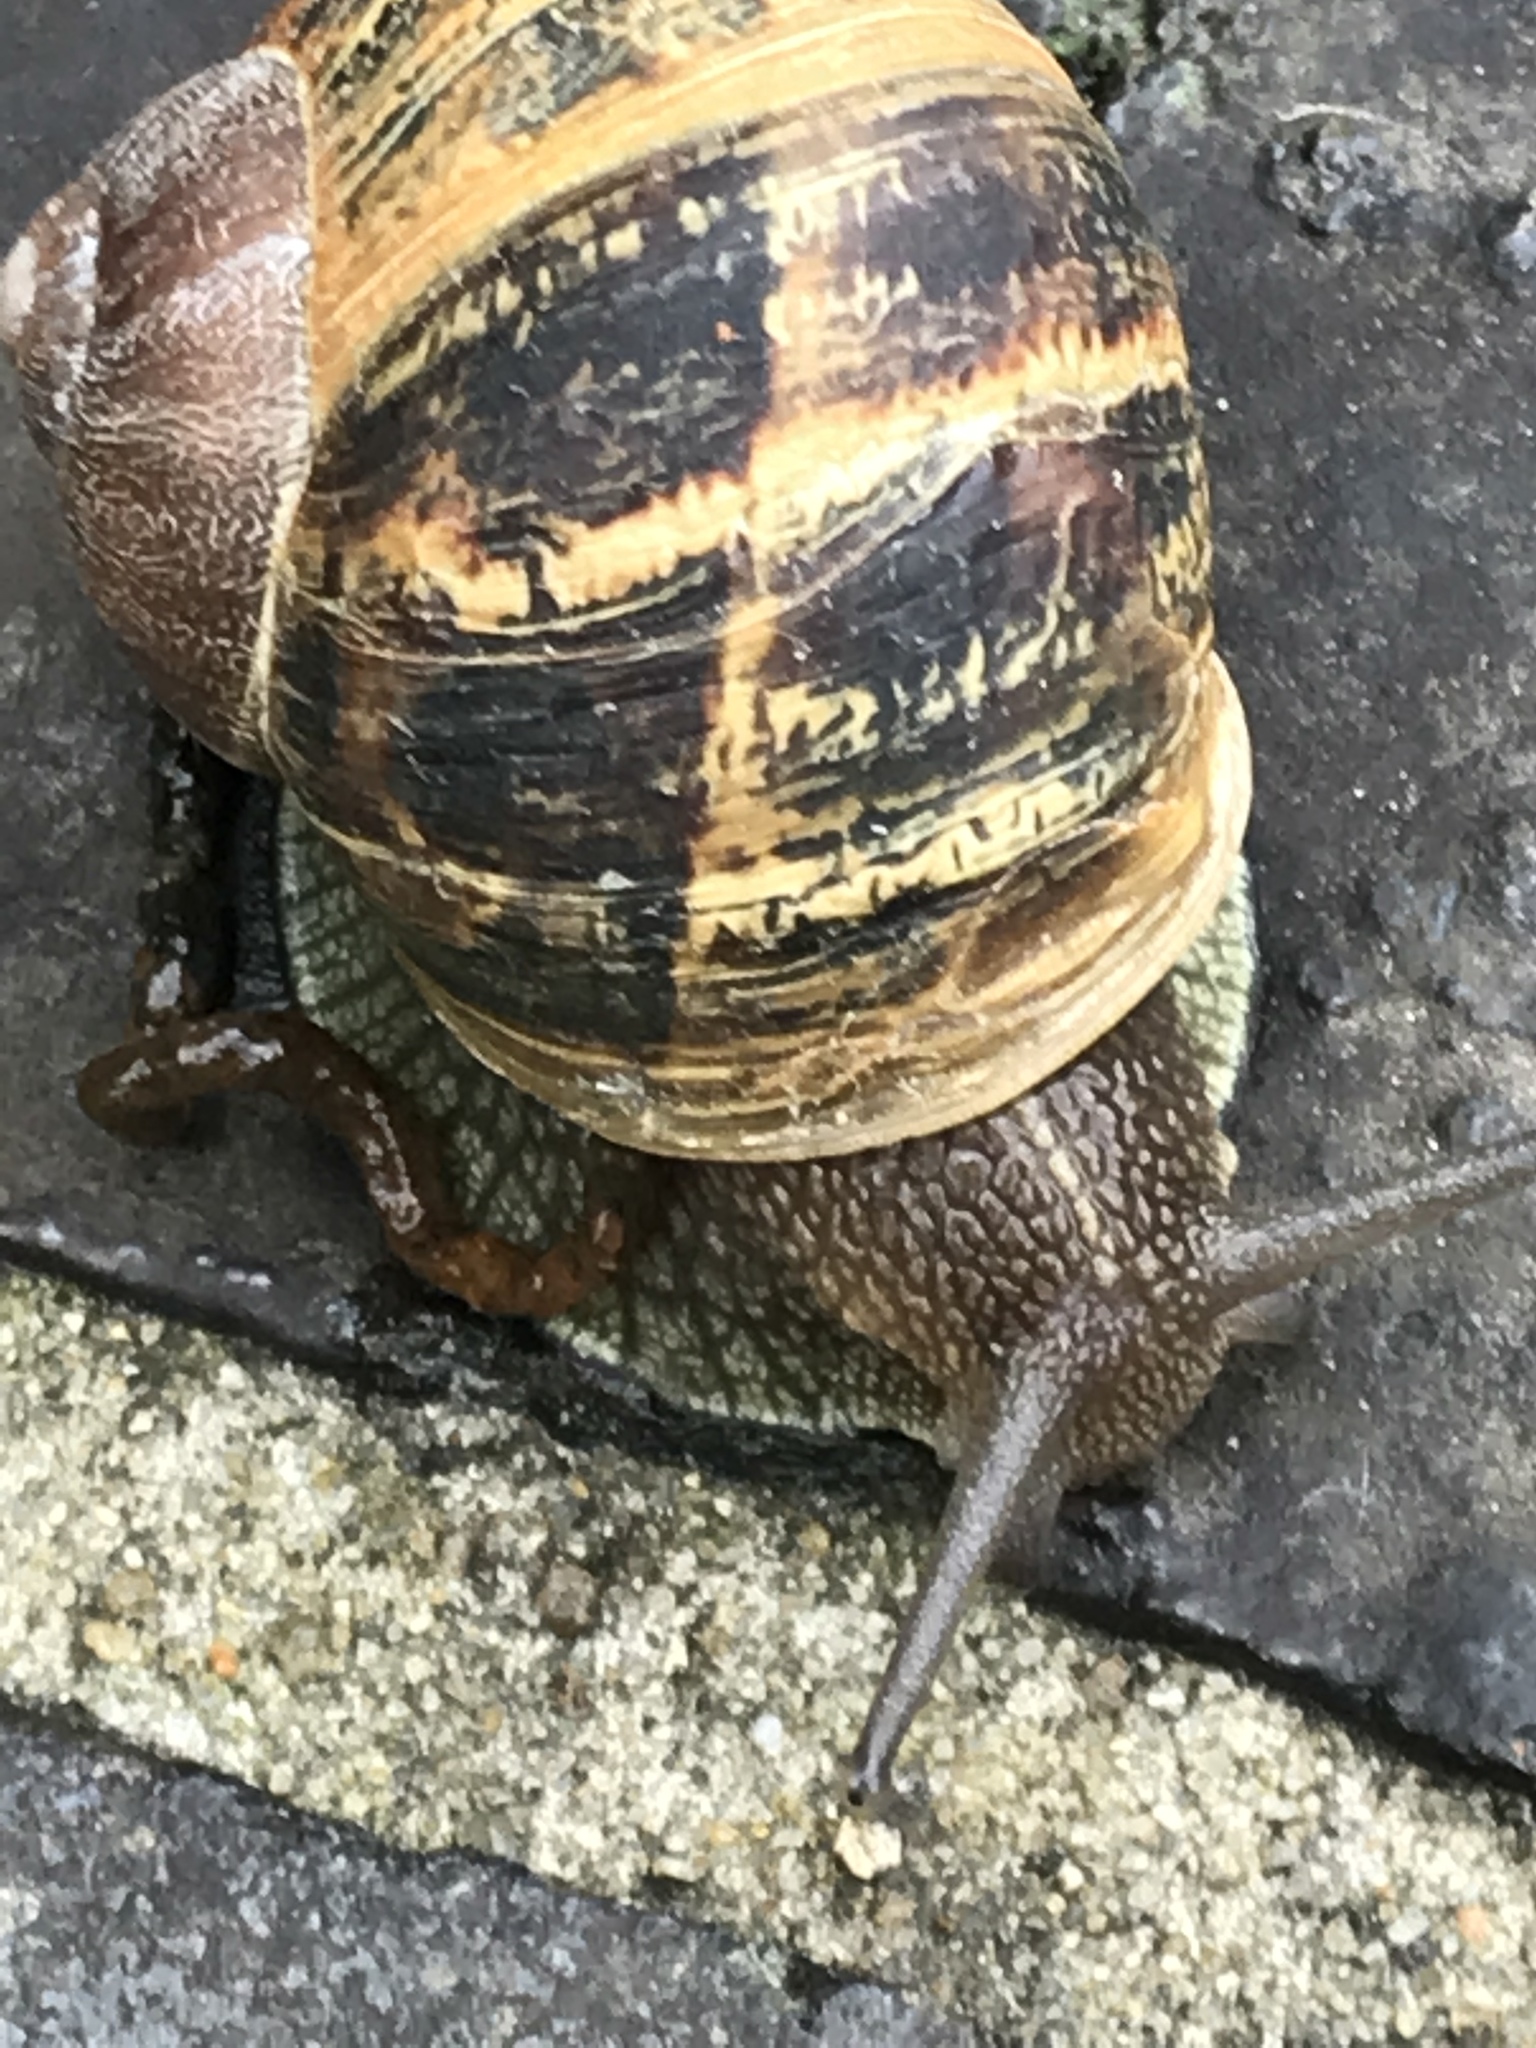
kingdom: Animalia
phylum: Mollusca
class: Gastropoda
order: Stylommatophora
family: Helicidae
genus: Cornu
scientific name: Cornu aspersum
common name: Brown garden snail
